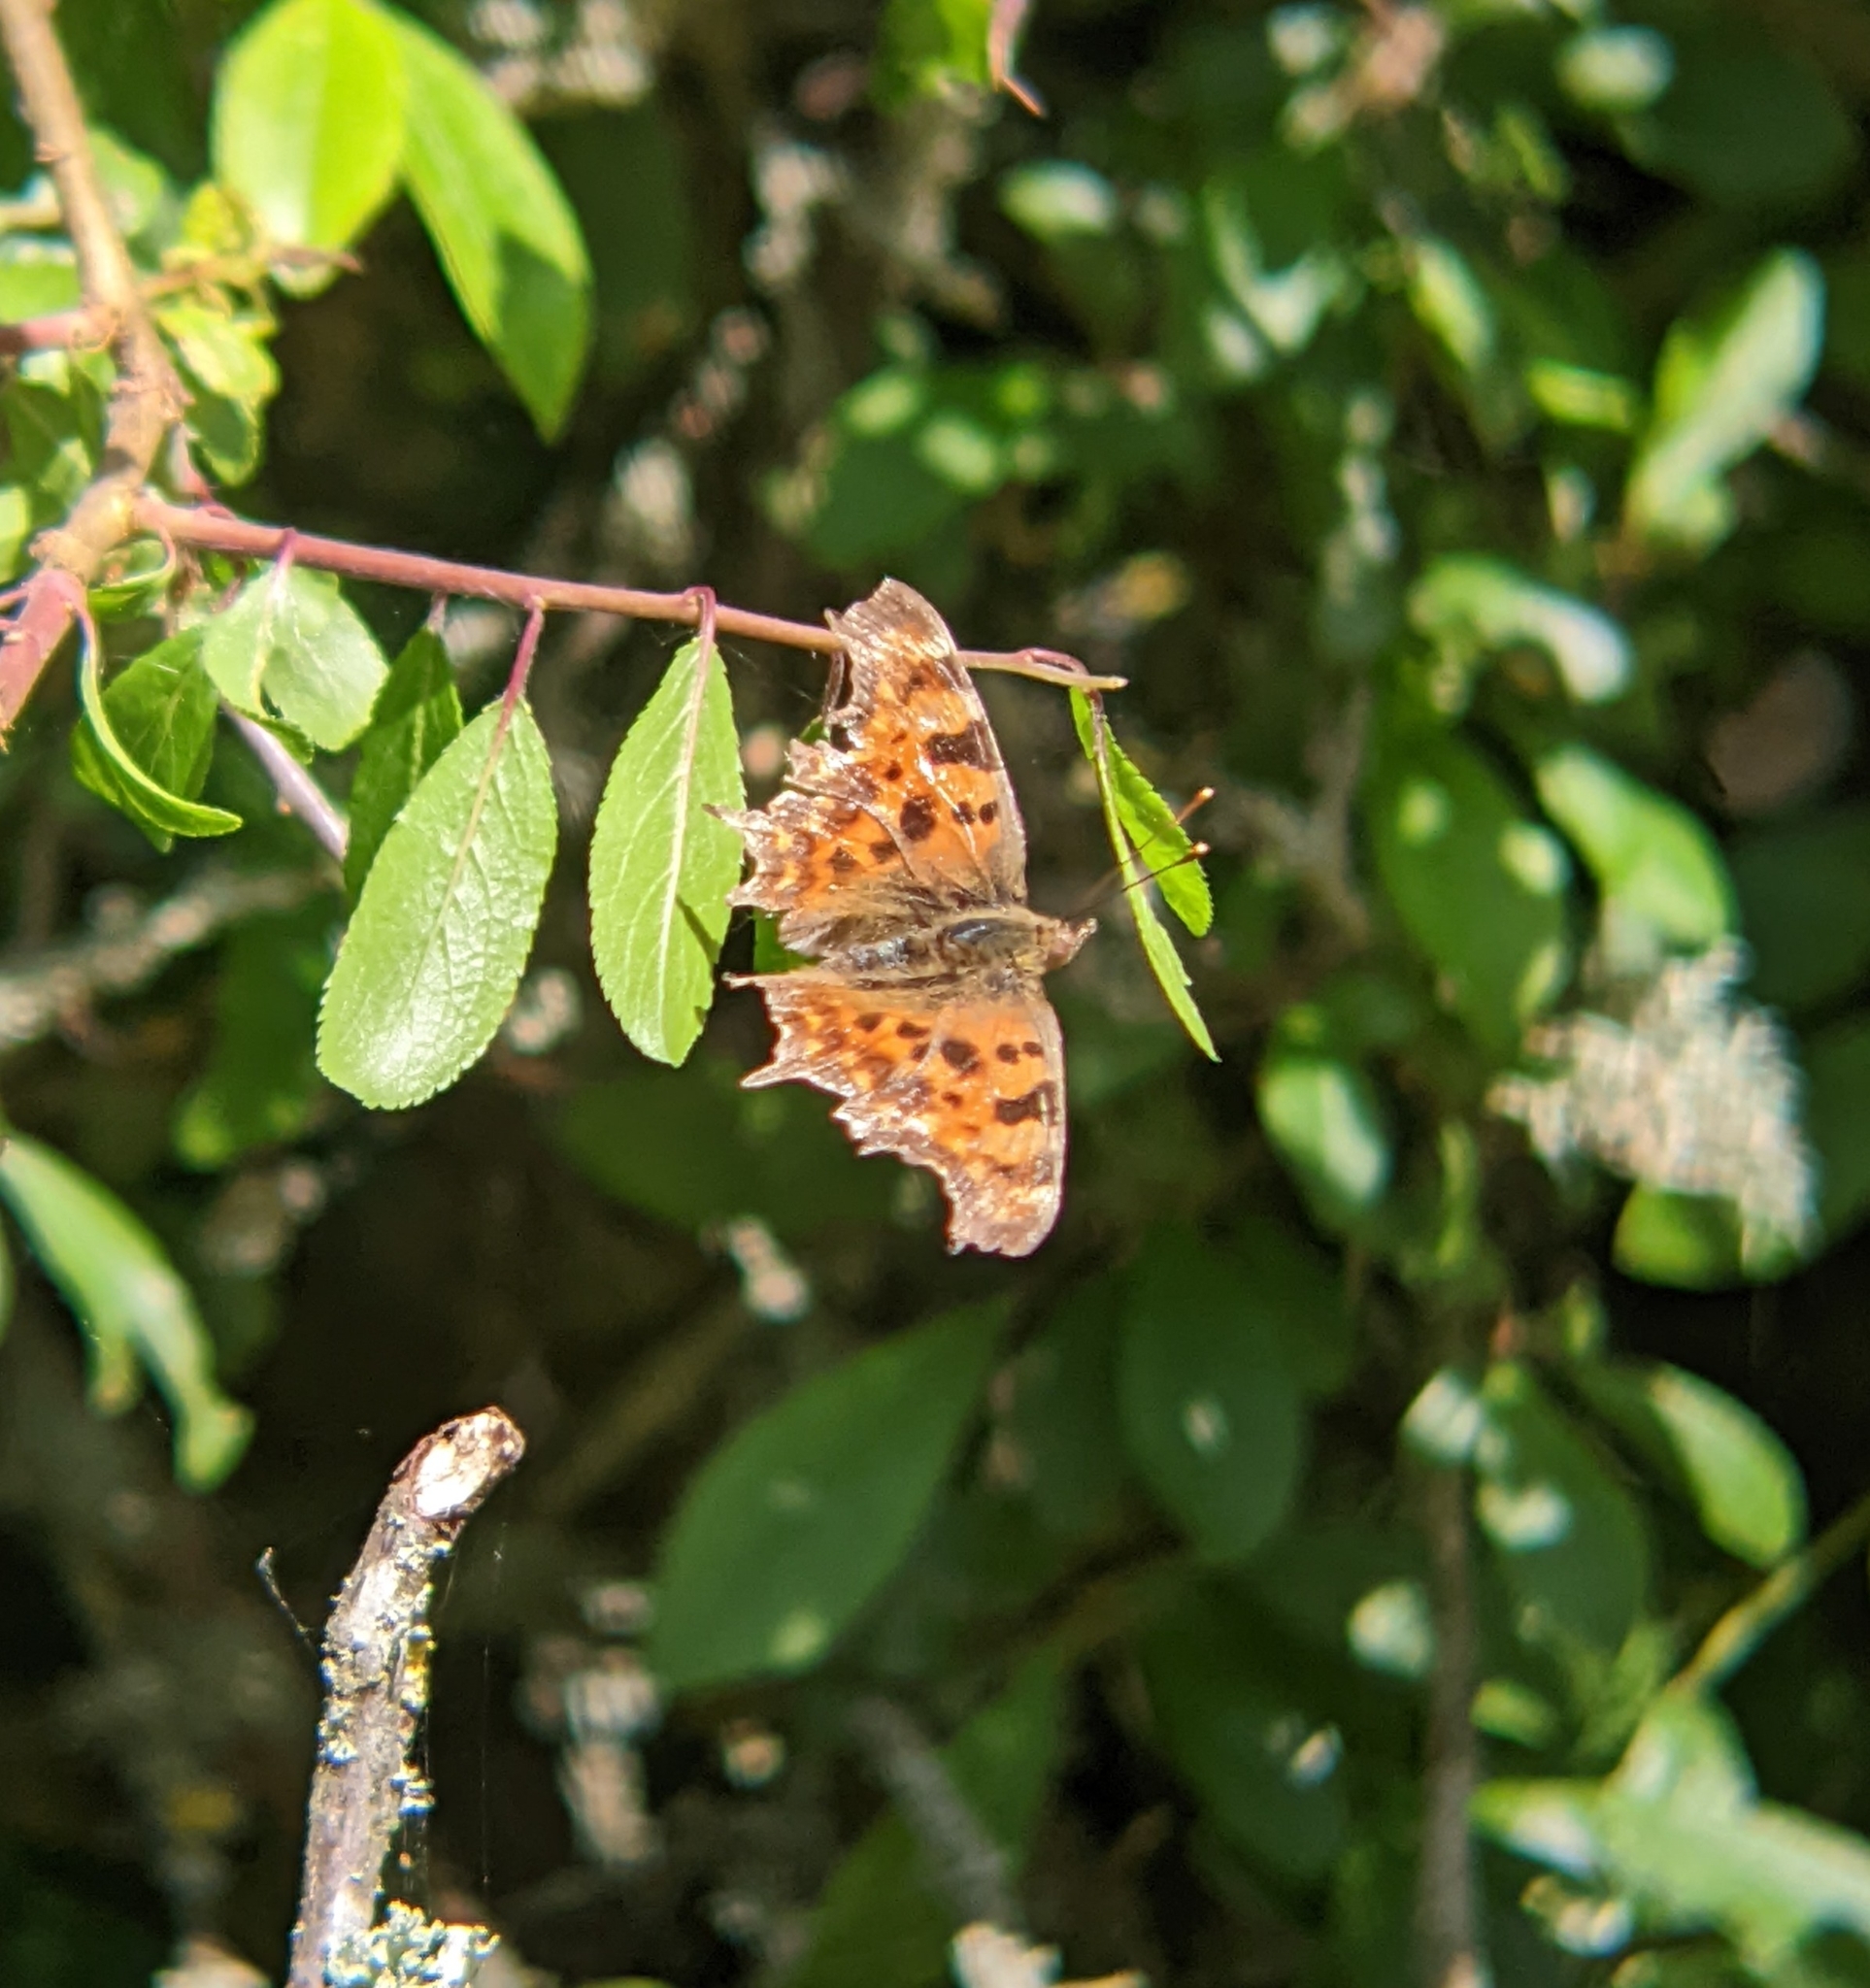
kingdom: Animalia
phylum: Arthropoda
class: Insecta
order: Lepidoptera
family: Nymphalidae
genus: Polygonia
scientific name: Polygonia c-album
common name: Comma
